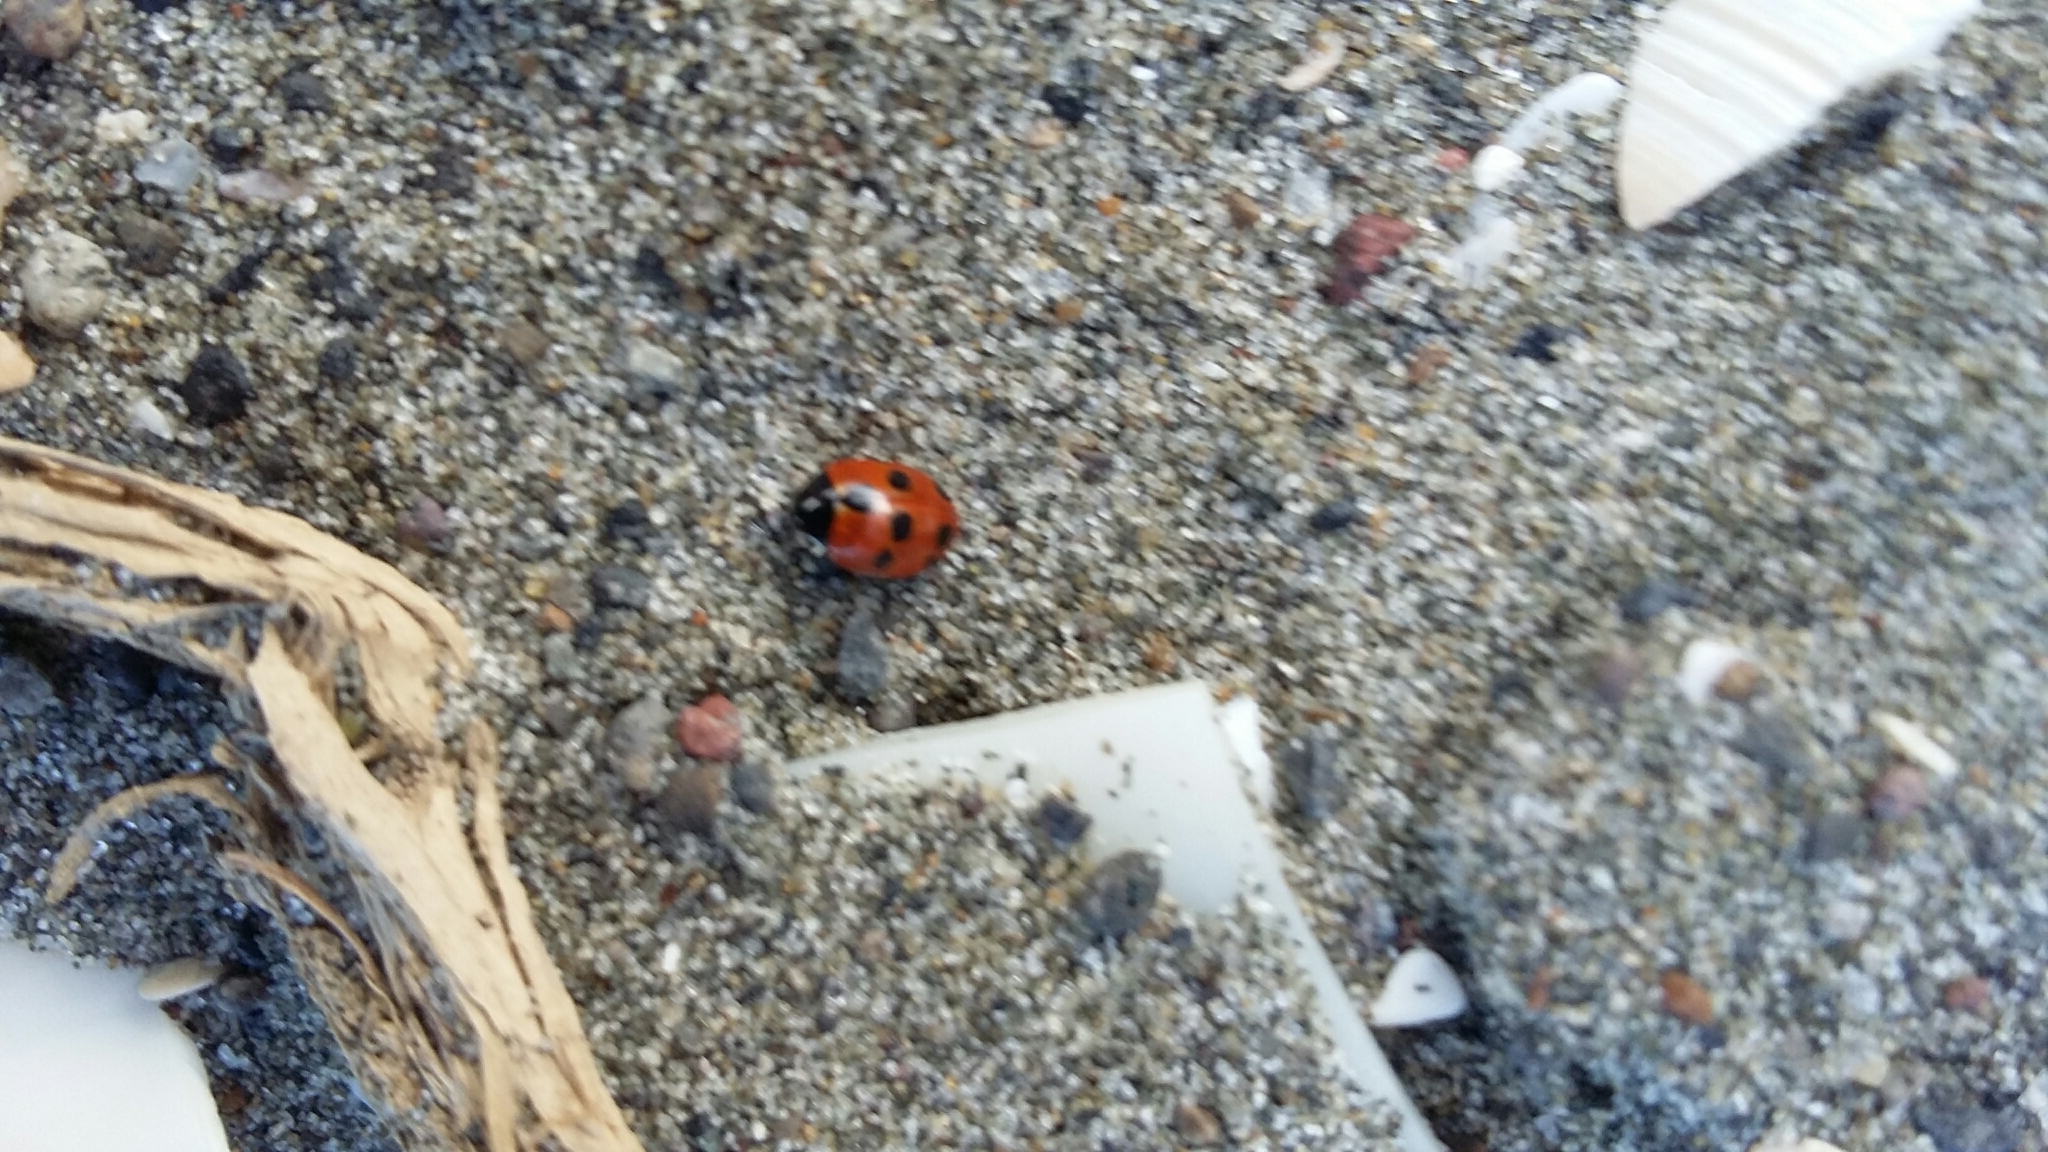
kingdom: Animalia
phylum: Arthropoda
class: Insecta
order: Coleoptera
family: Coccinellidae
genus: Coccinella
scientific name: Coccinella undecimpunctata
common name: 11-spot ladybird
